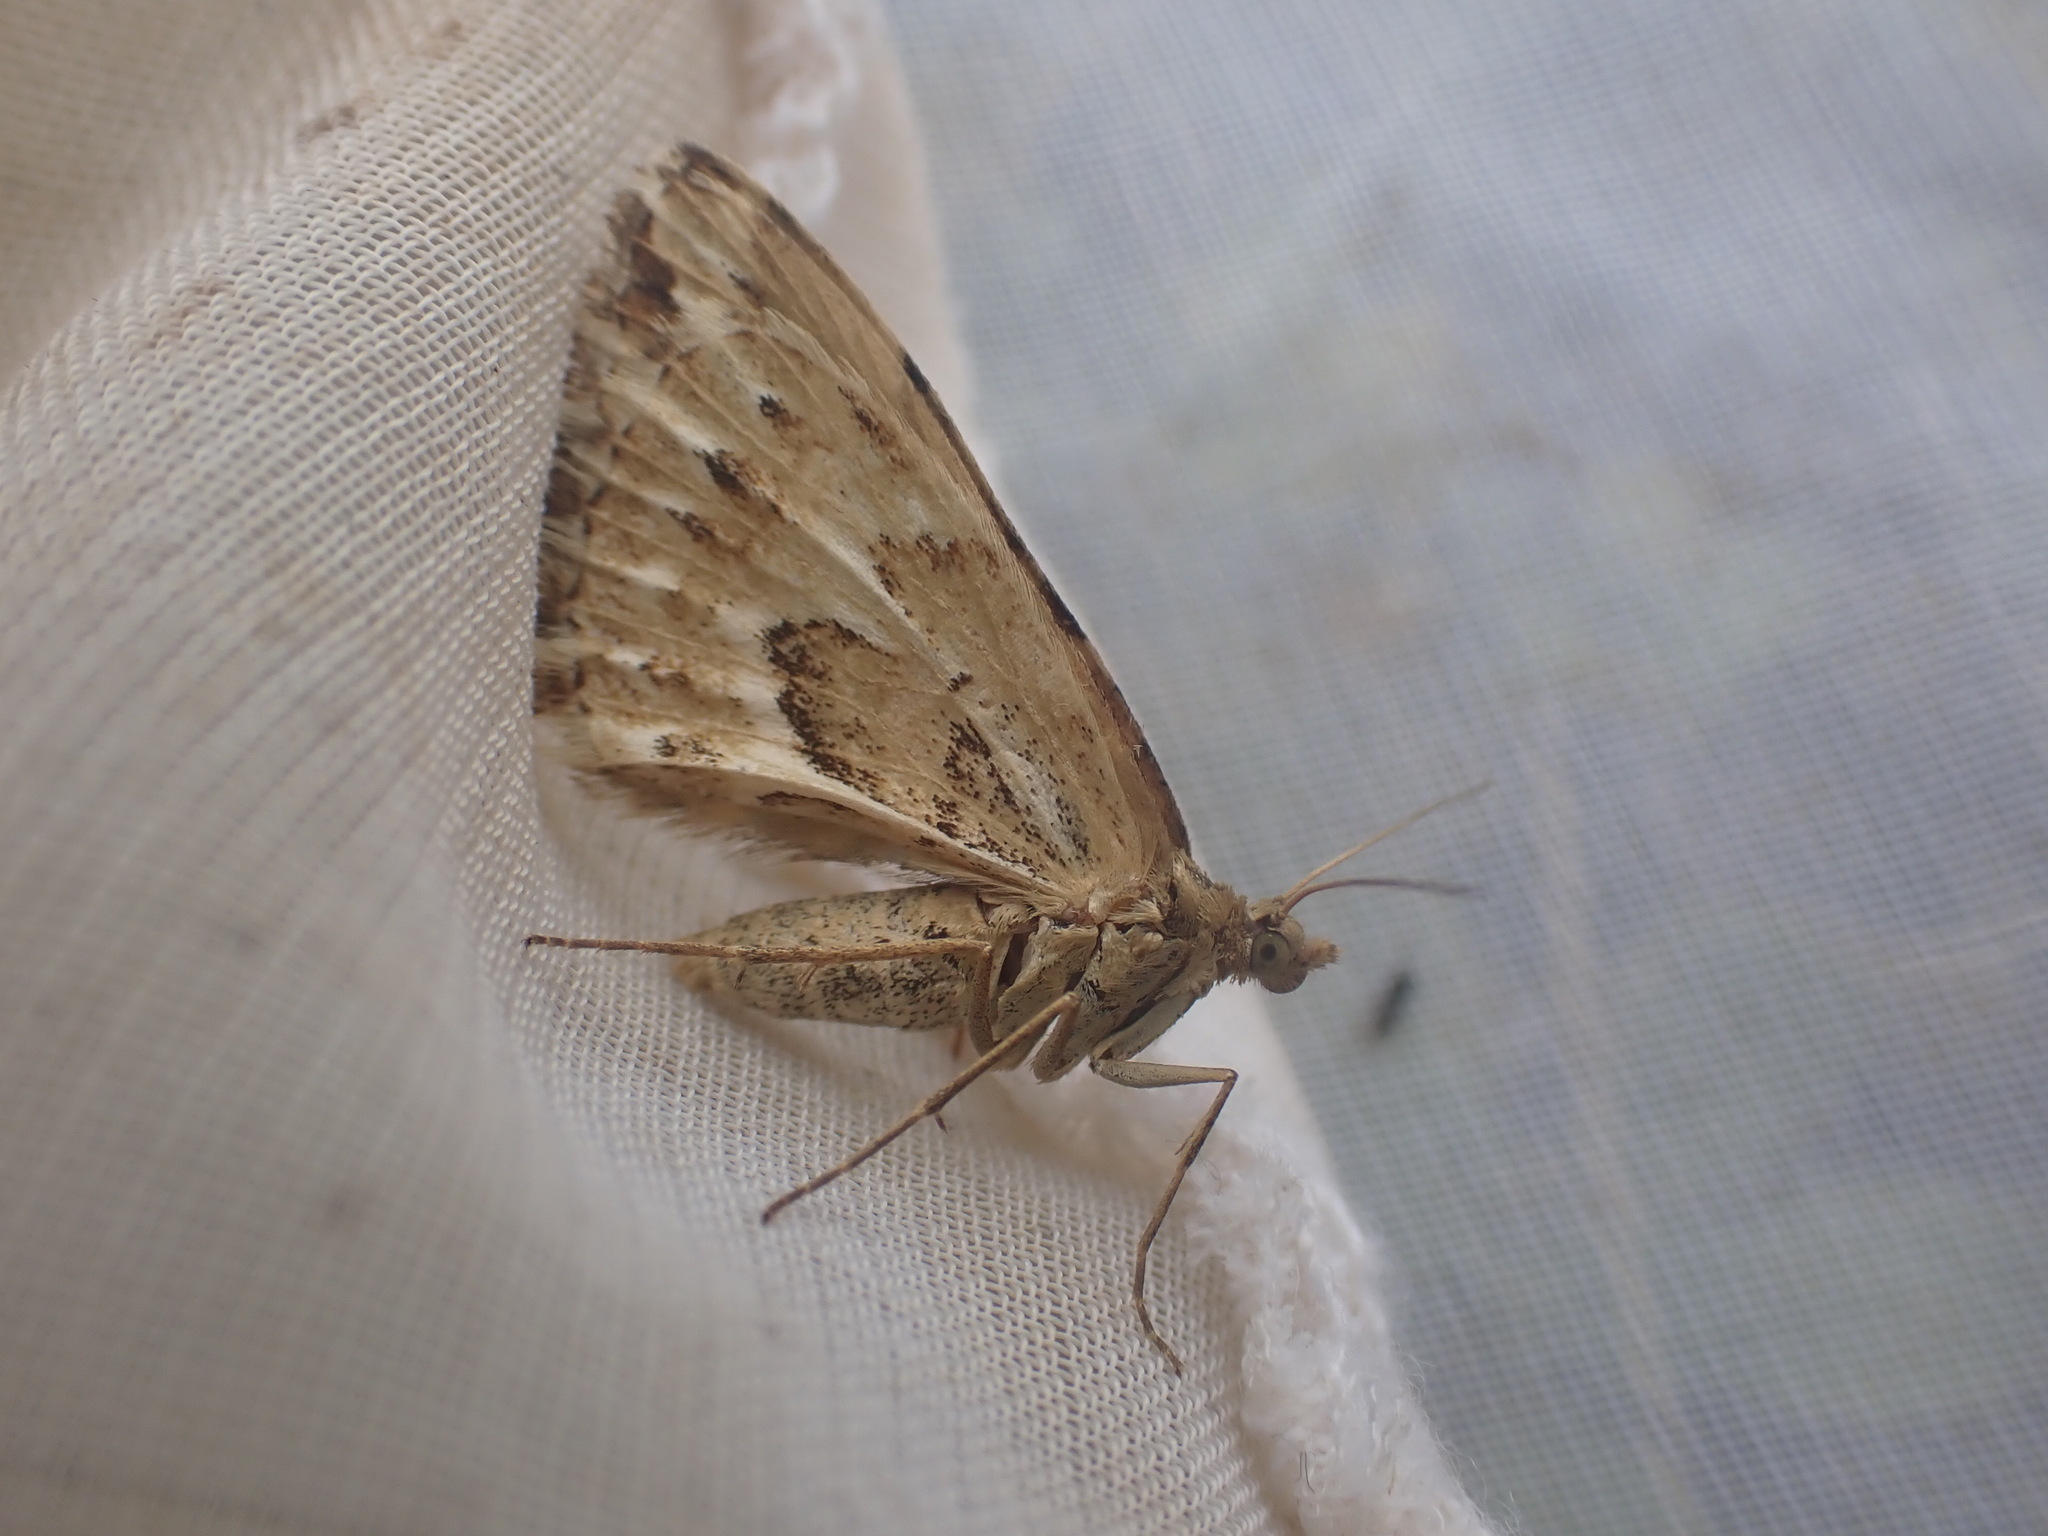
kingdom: Animalia
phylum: Arthropoda
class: Insecta
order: Lepidoptera
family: Geometridae
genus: Asaphodes
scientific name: Asaphodes clarata
